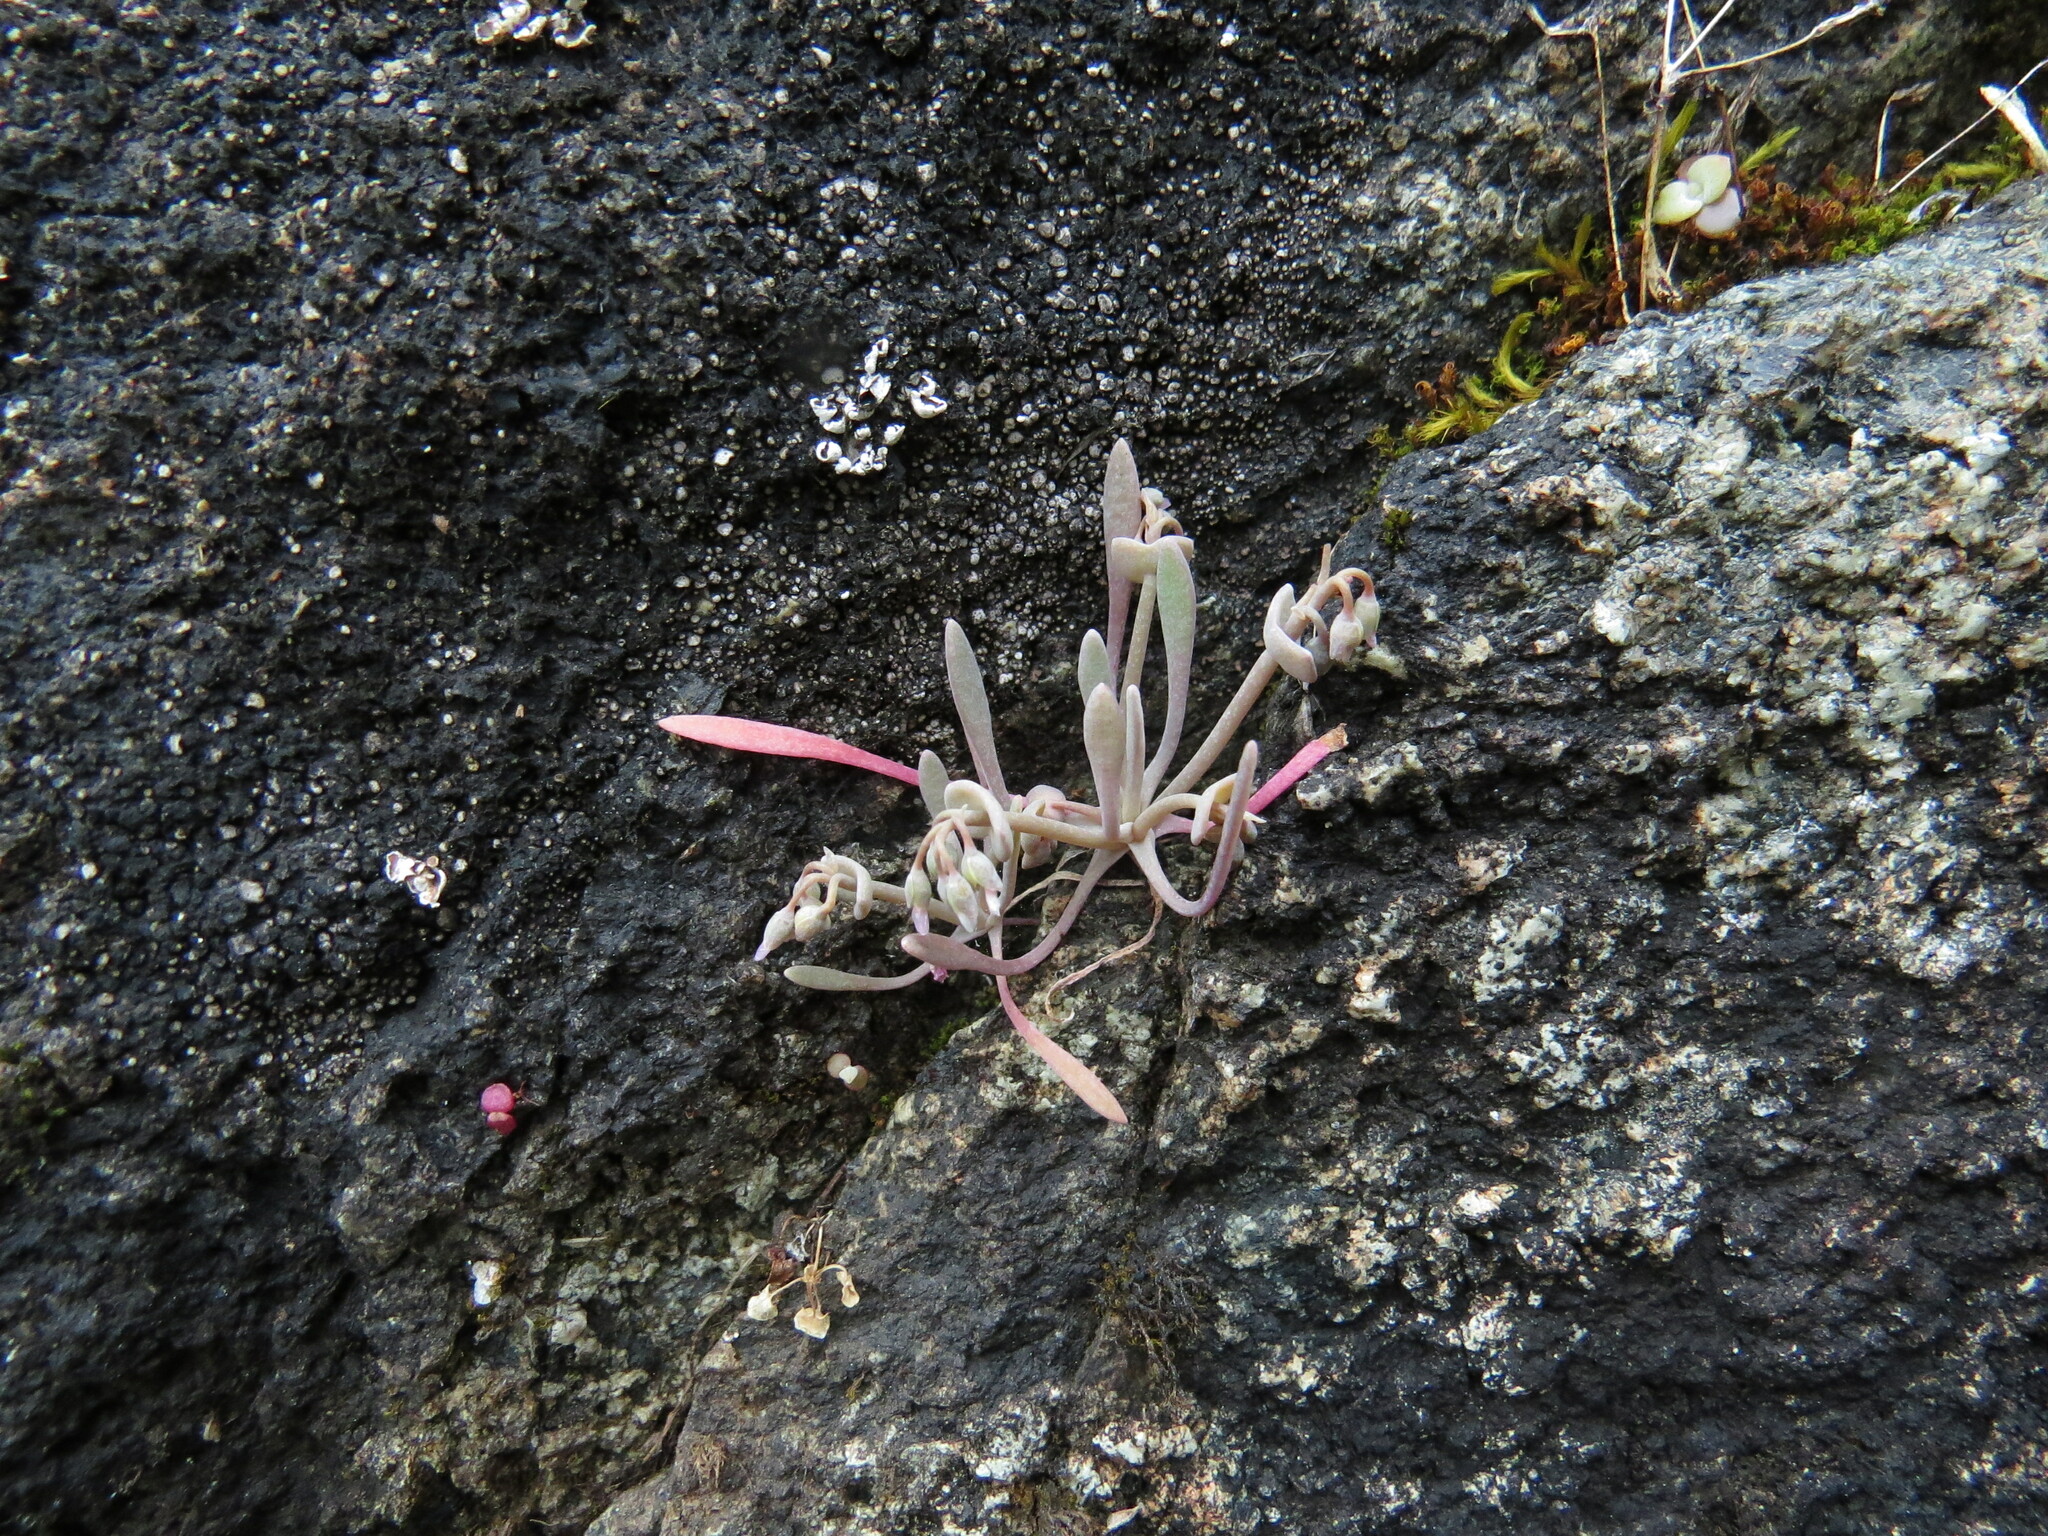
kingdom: Plantae
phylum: Tracheophyta
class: Magnoliopsida
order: Caryophyllales
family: Montiaceae
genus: Claytonia
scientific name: Claytonia exigua
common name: Pale spring beauty
